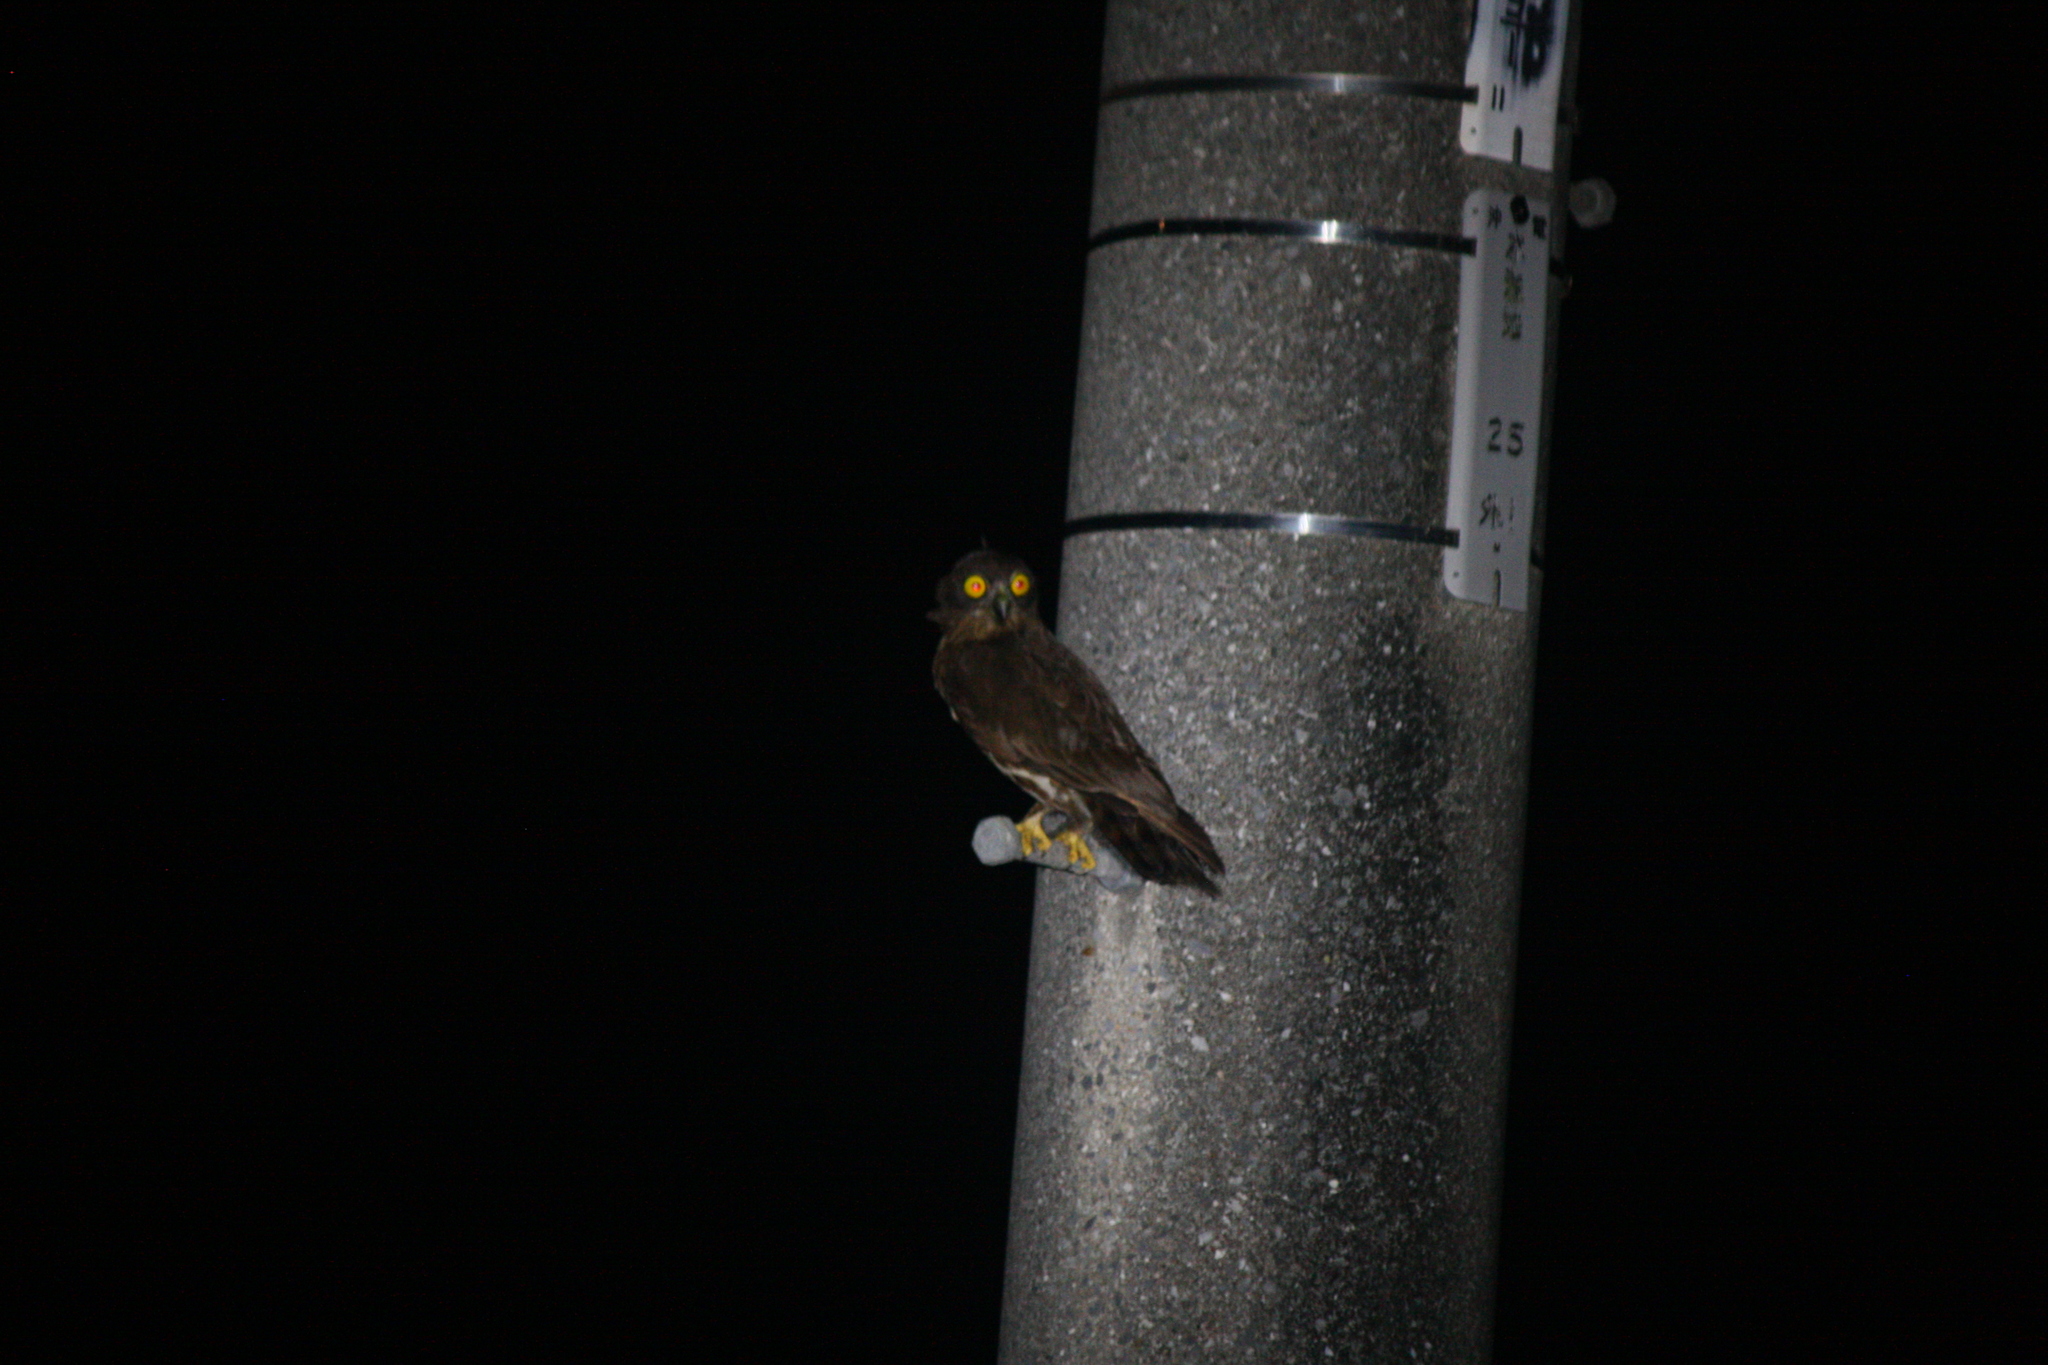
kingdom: Animalia
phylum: Chordata
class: Aves
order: Strigiformes
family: Strigidae
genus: Ninox
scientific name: Ninox japonica
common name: Northern boobook
